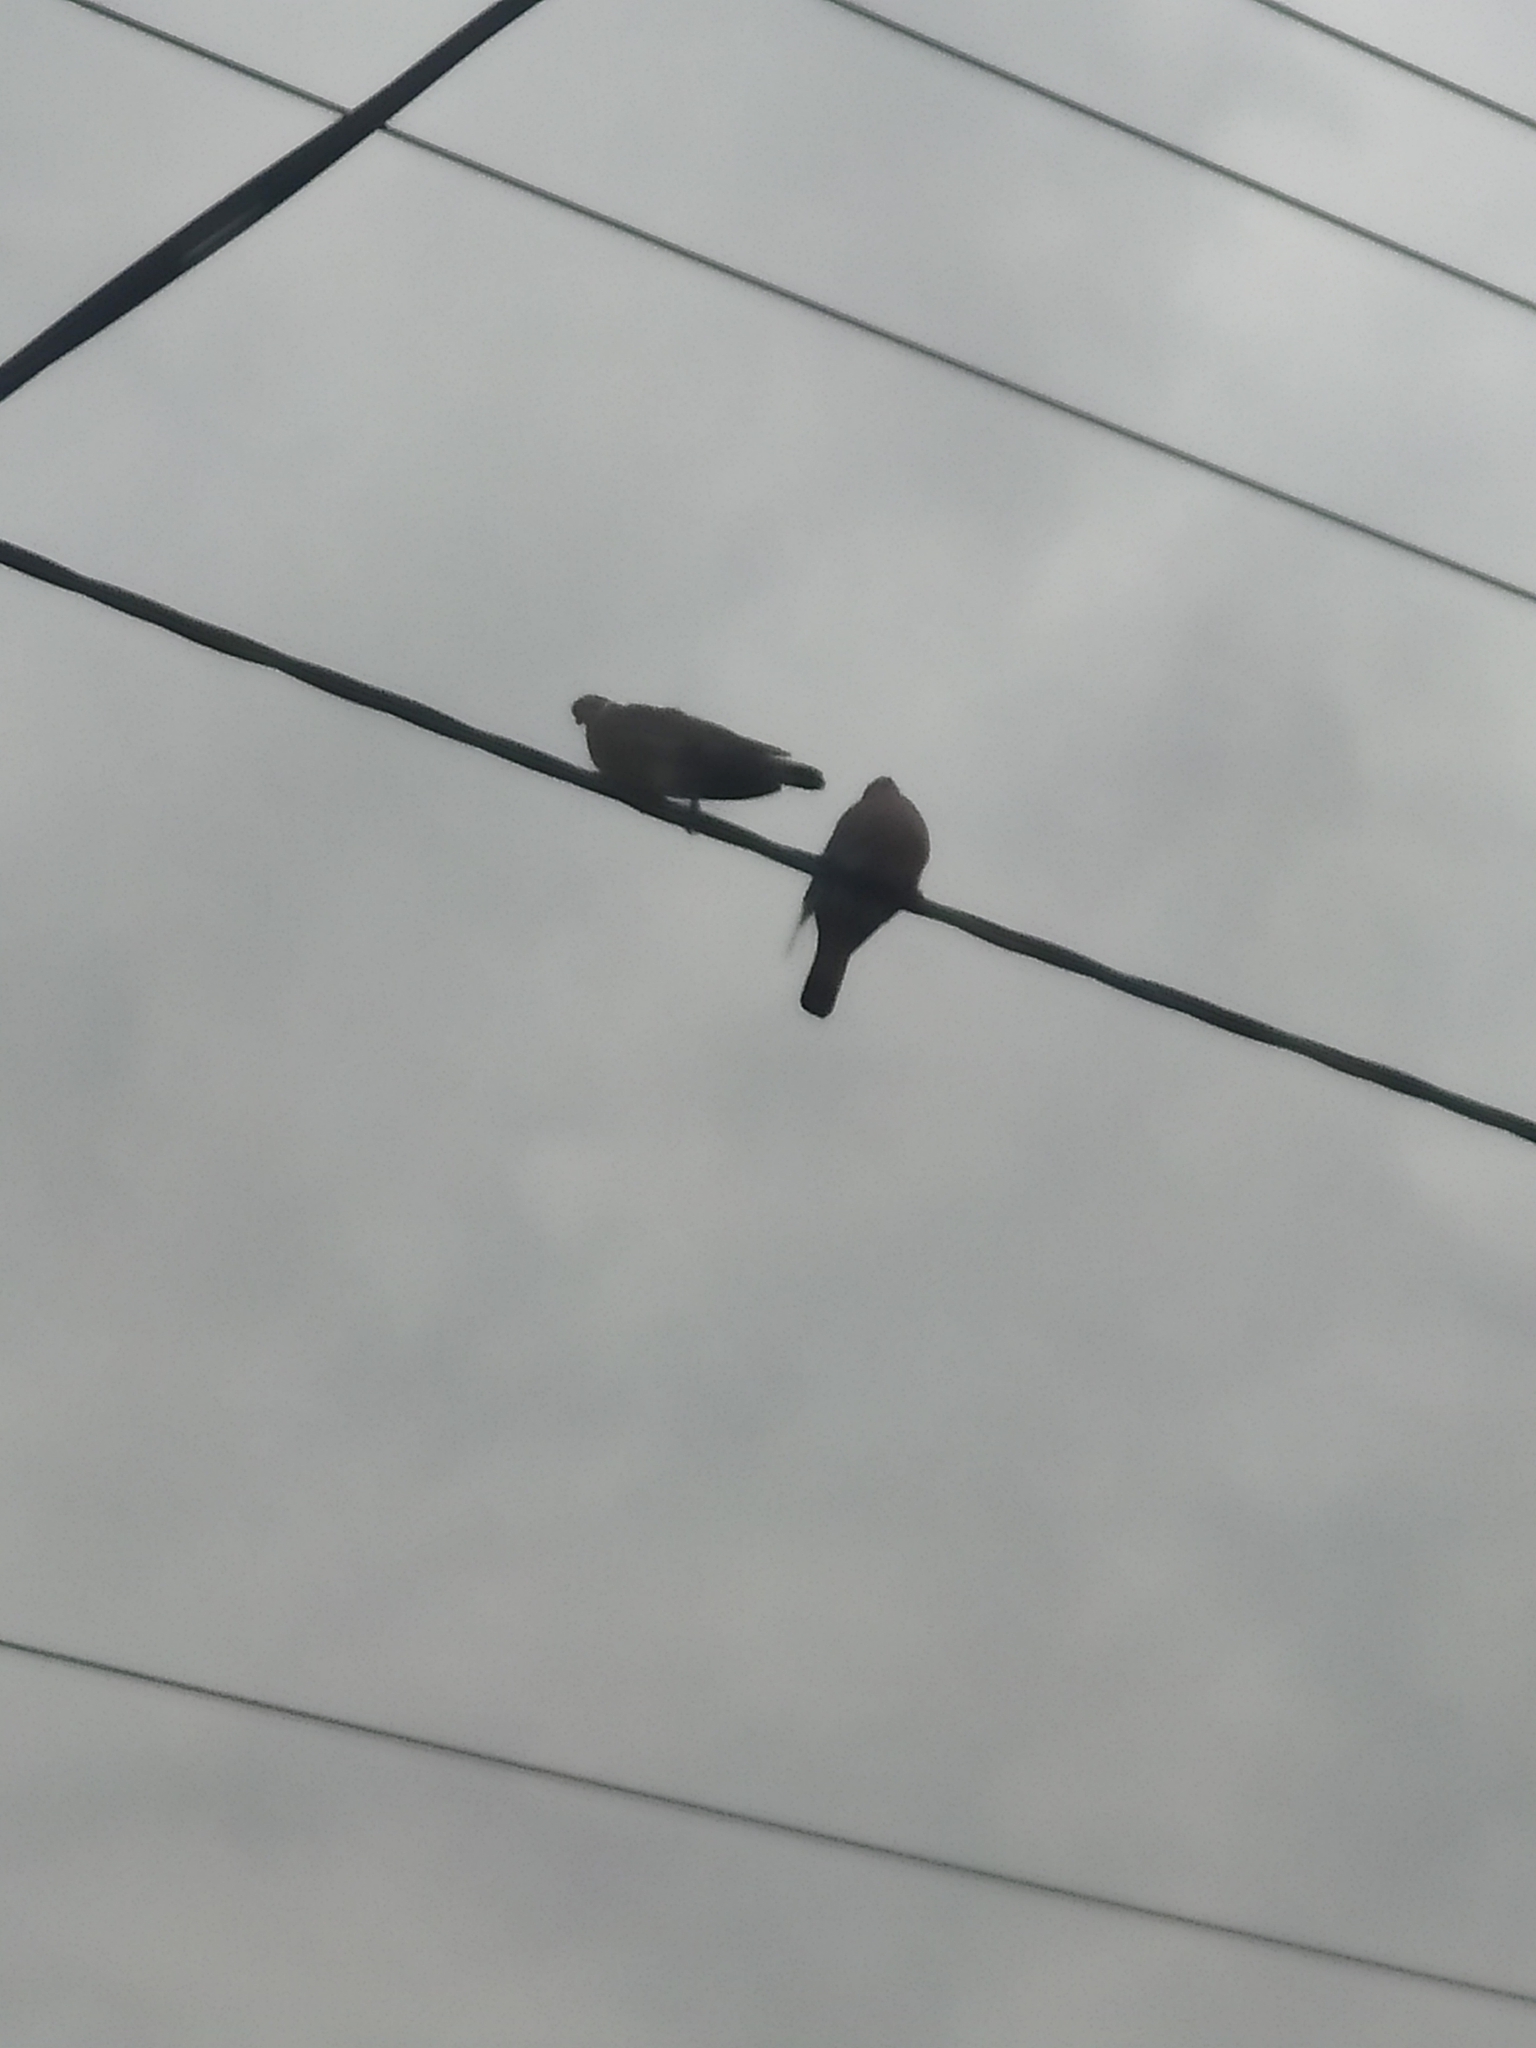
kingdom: Animalia
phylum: Chordata
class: Aves
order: Columbiformes
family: Columbidae
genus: Columba
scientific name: Columba palumbus
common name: Common wood pigeon
